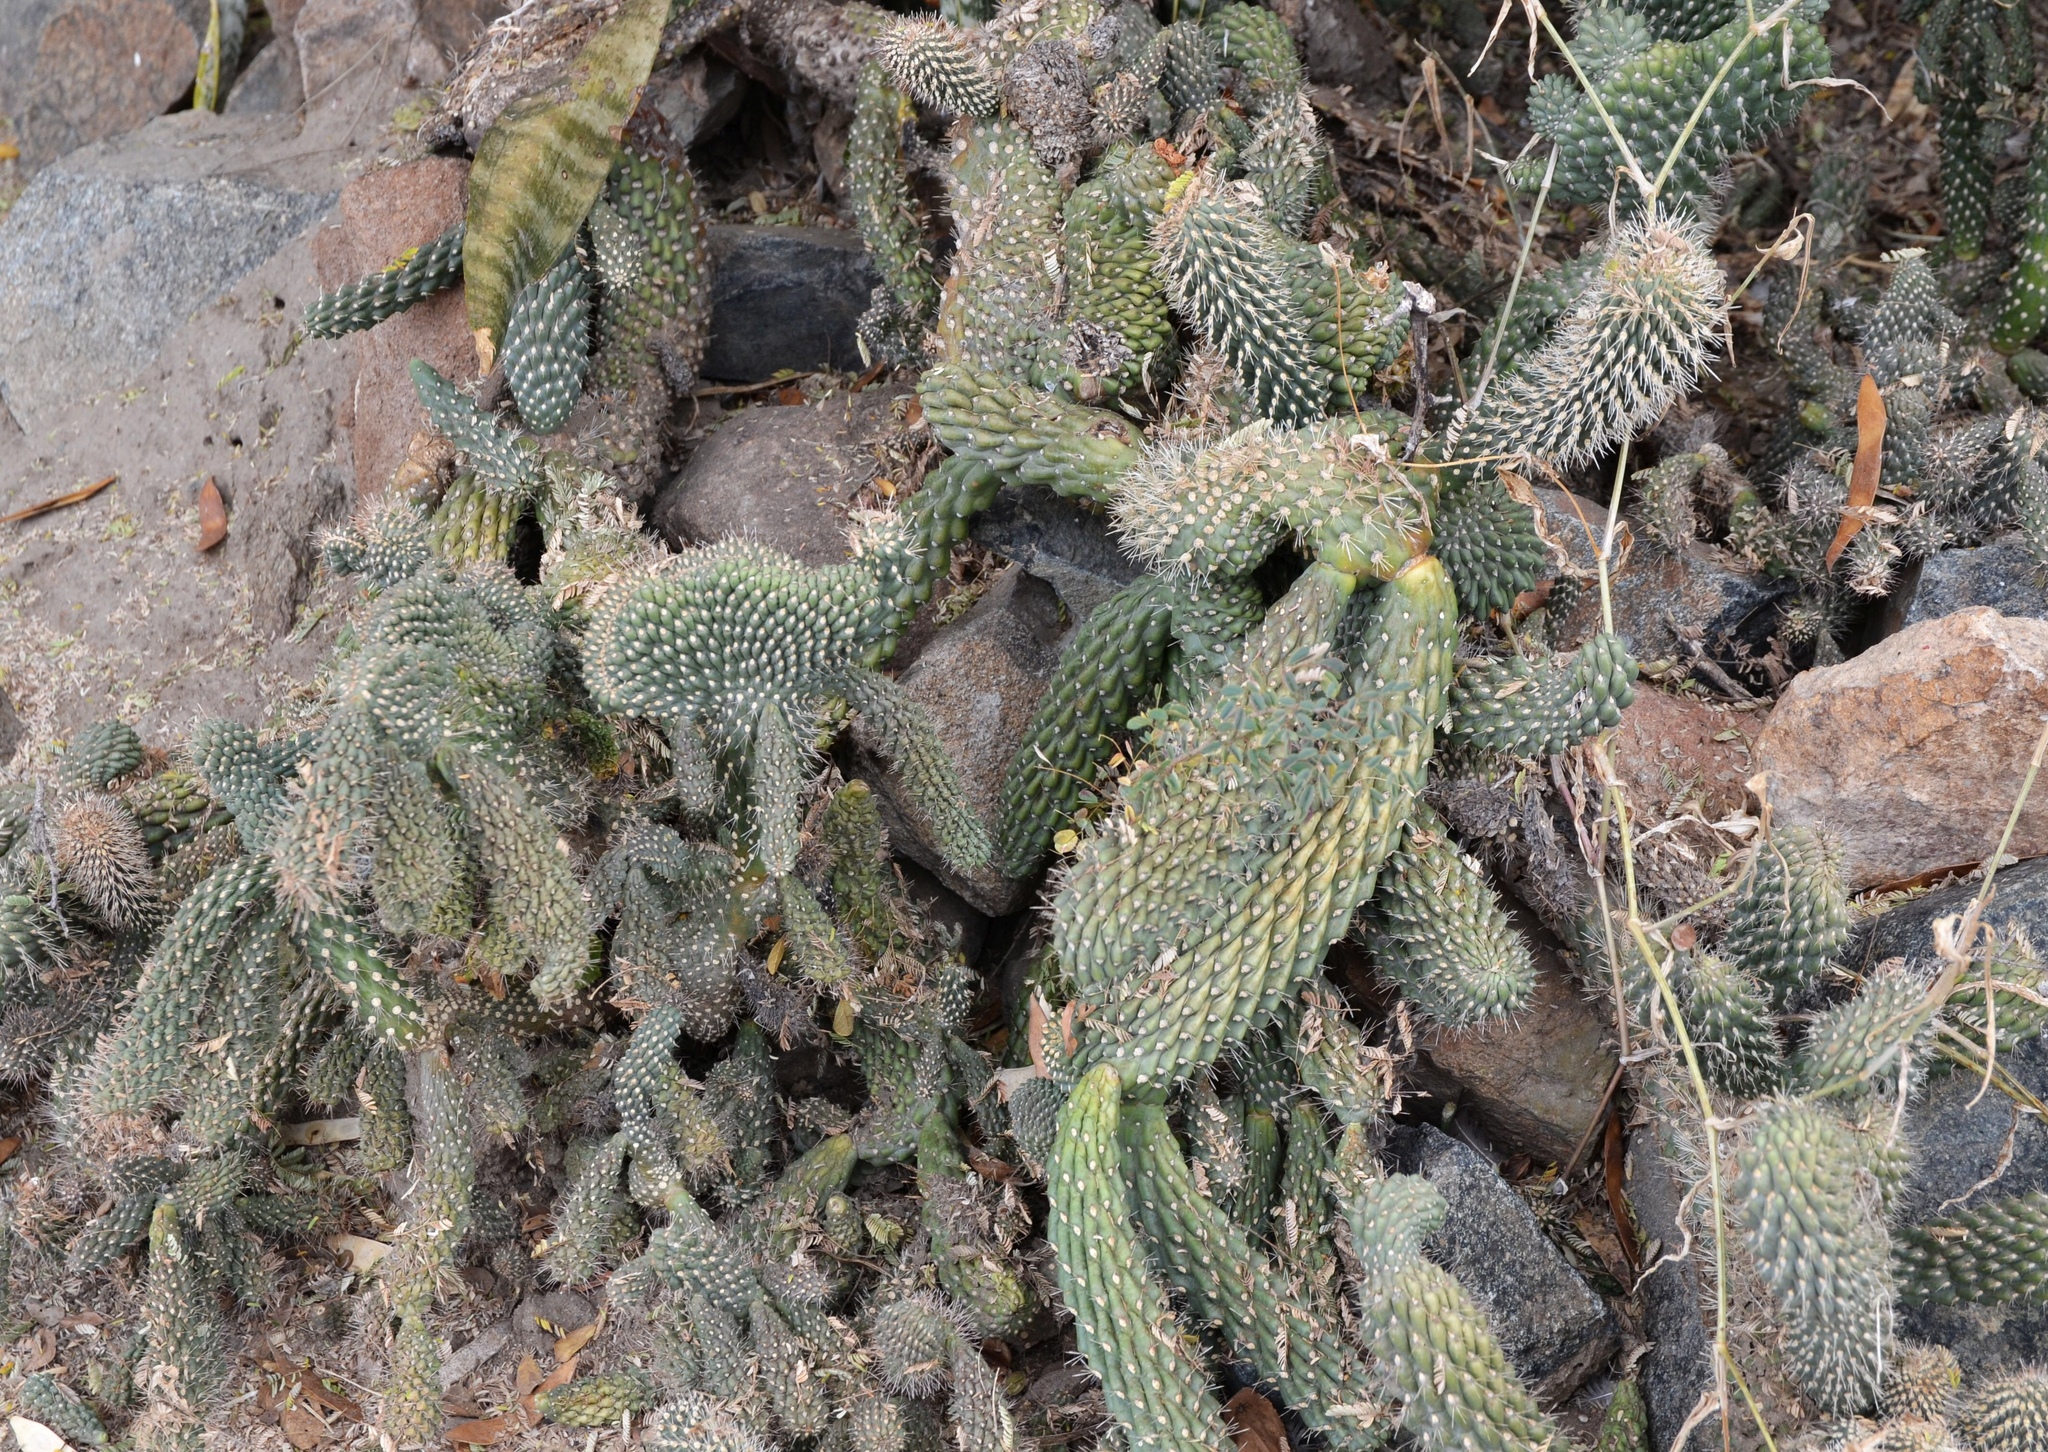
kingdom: Plantae
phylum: Tracheophyta
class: Magnoliopsida
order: Caryophyllales
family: Cactaceae
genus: Cylindropuntia
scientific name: Cylindropuntia fulgida
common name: Jumping cholla
